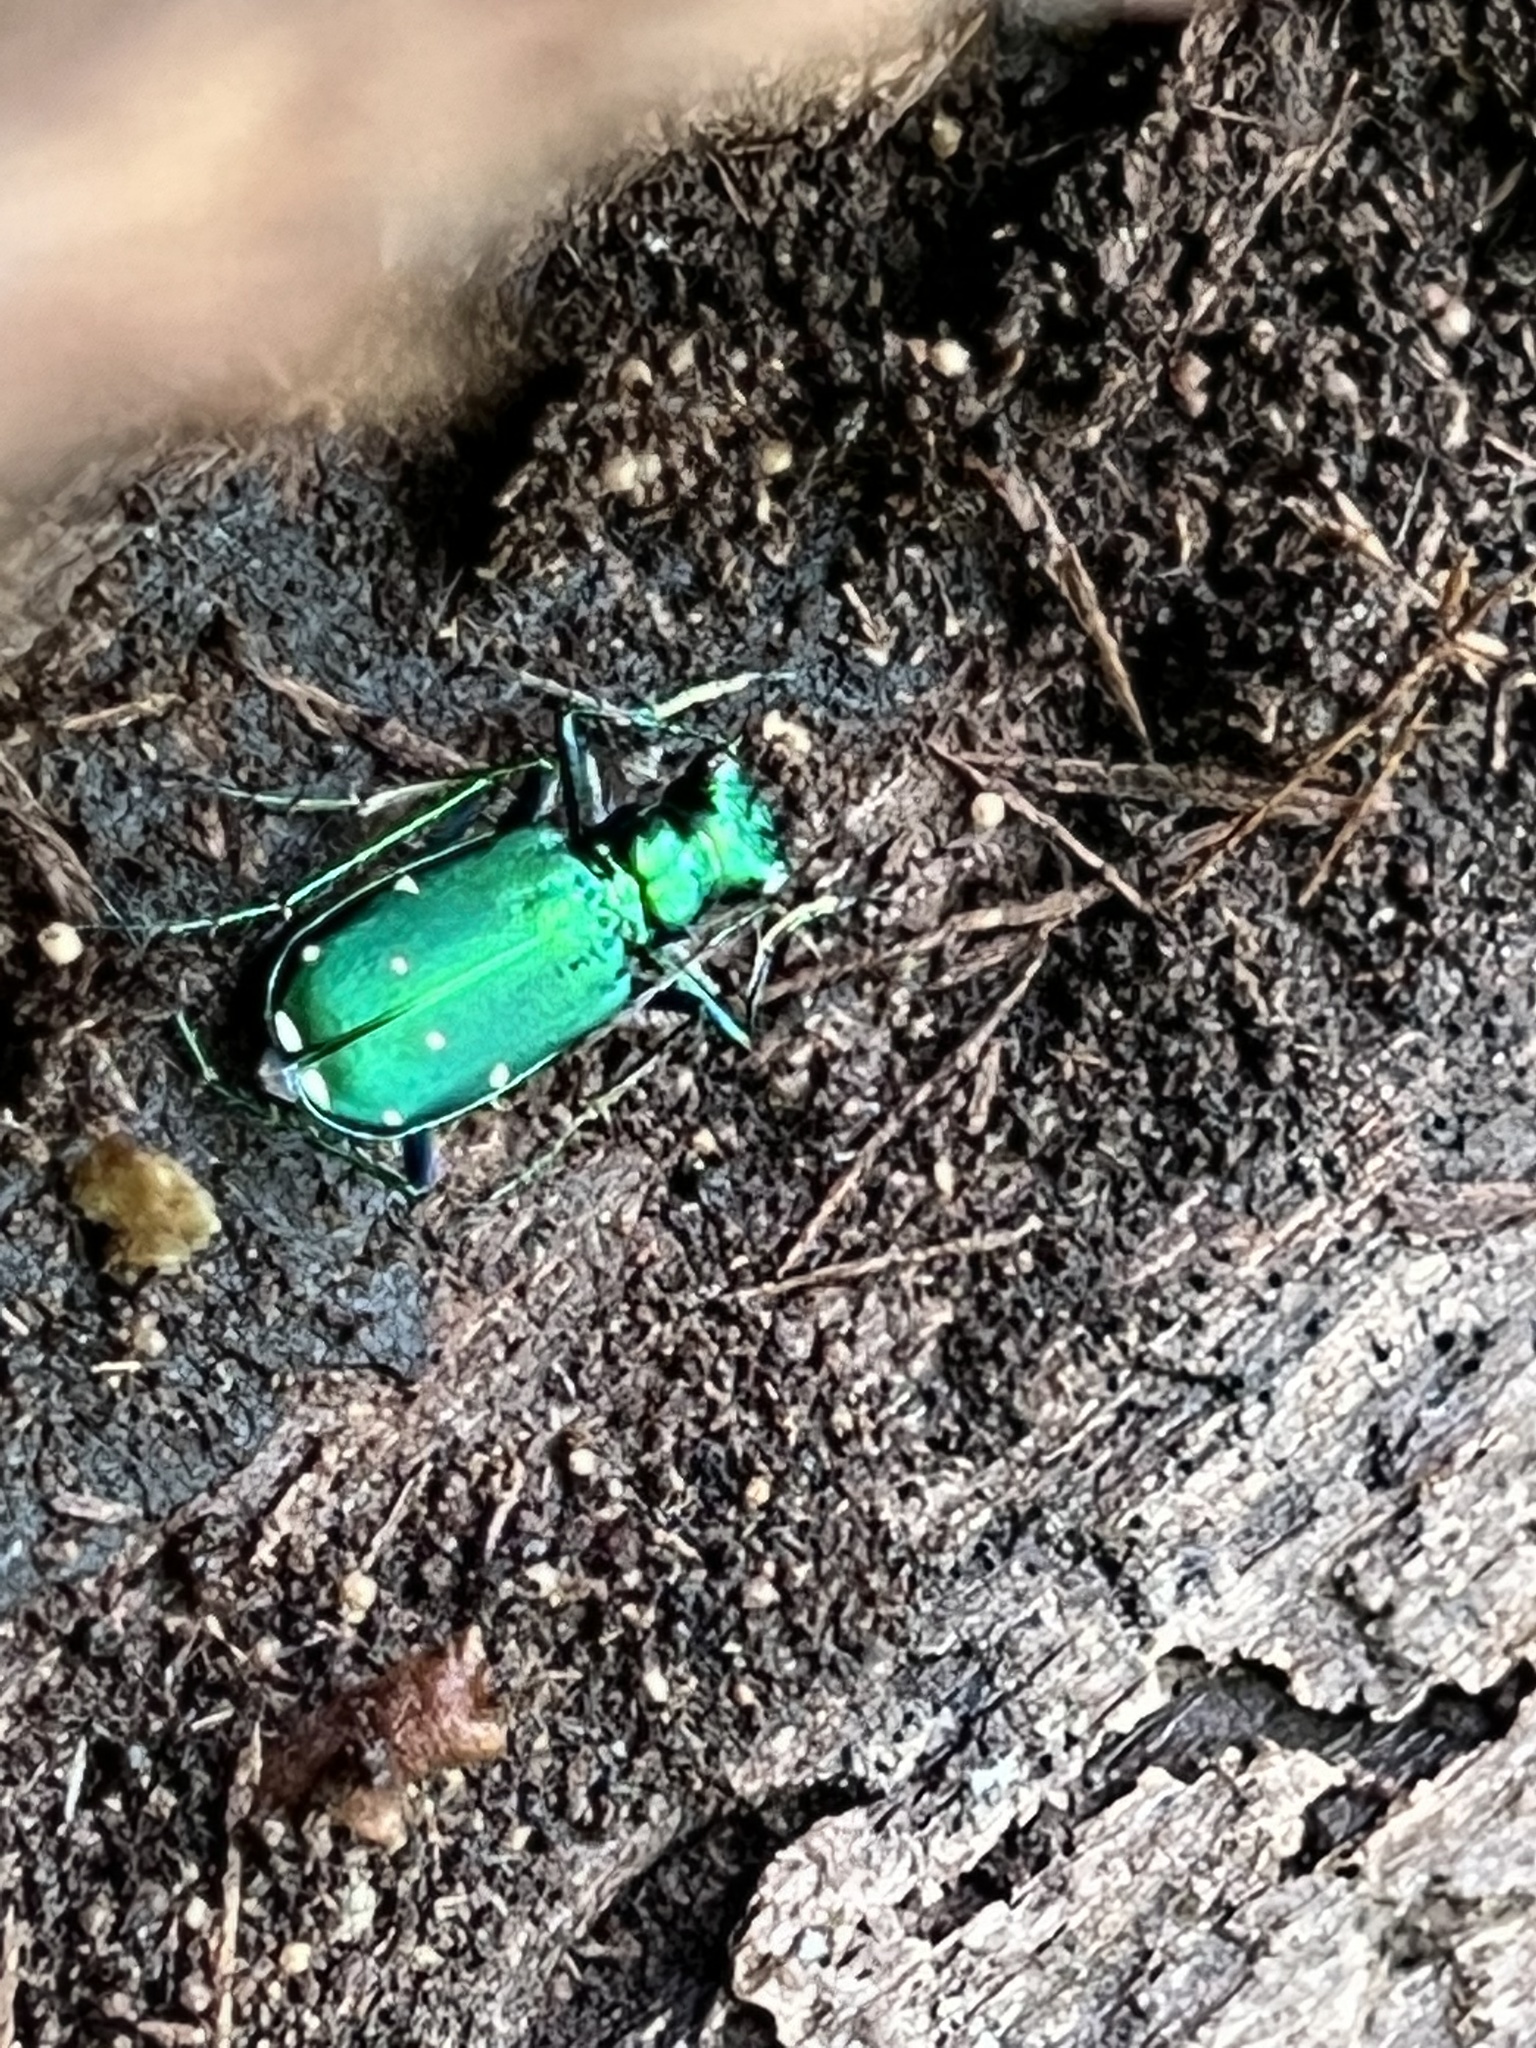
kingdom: Animalia
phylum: Arthropoda
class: Insecta
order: Coleoptera
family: Carabidae
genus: Cicindela
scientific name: Cicindela sexguttata
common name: Six-spotted tiger beetle
